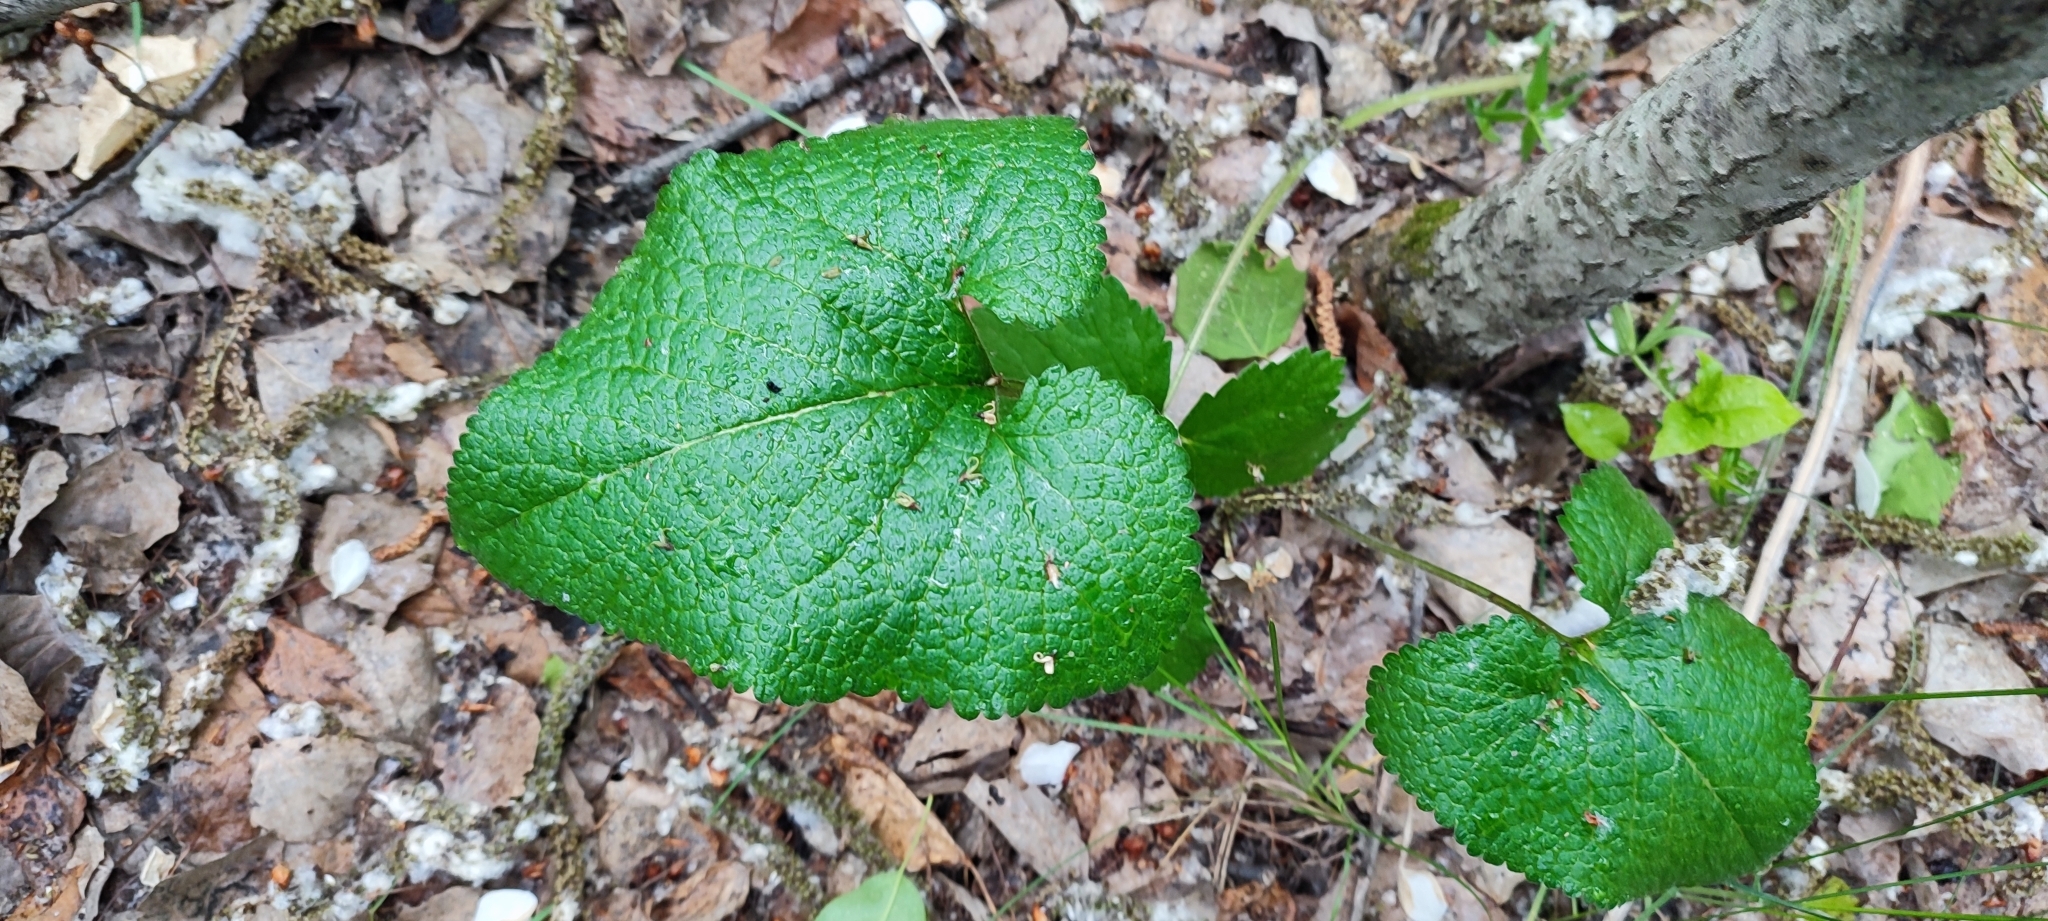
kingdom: Plantae
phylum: Tracheophyta
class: Magnoliopsida
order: Lamiales
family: Lamiaceae
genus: Phlomoides
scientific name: Phlomoides tuberosa
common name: Tuberous jerusalem sage
